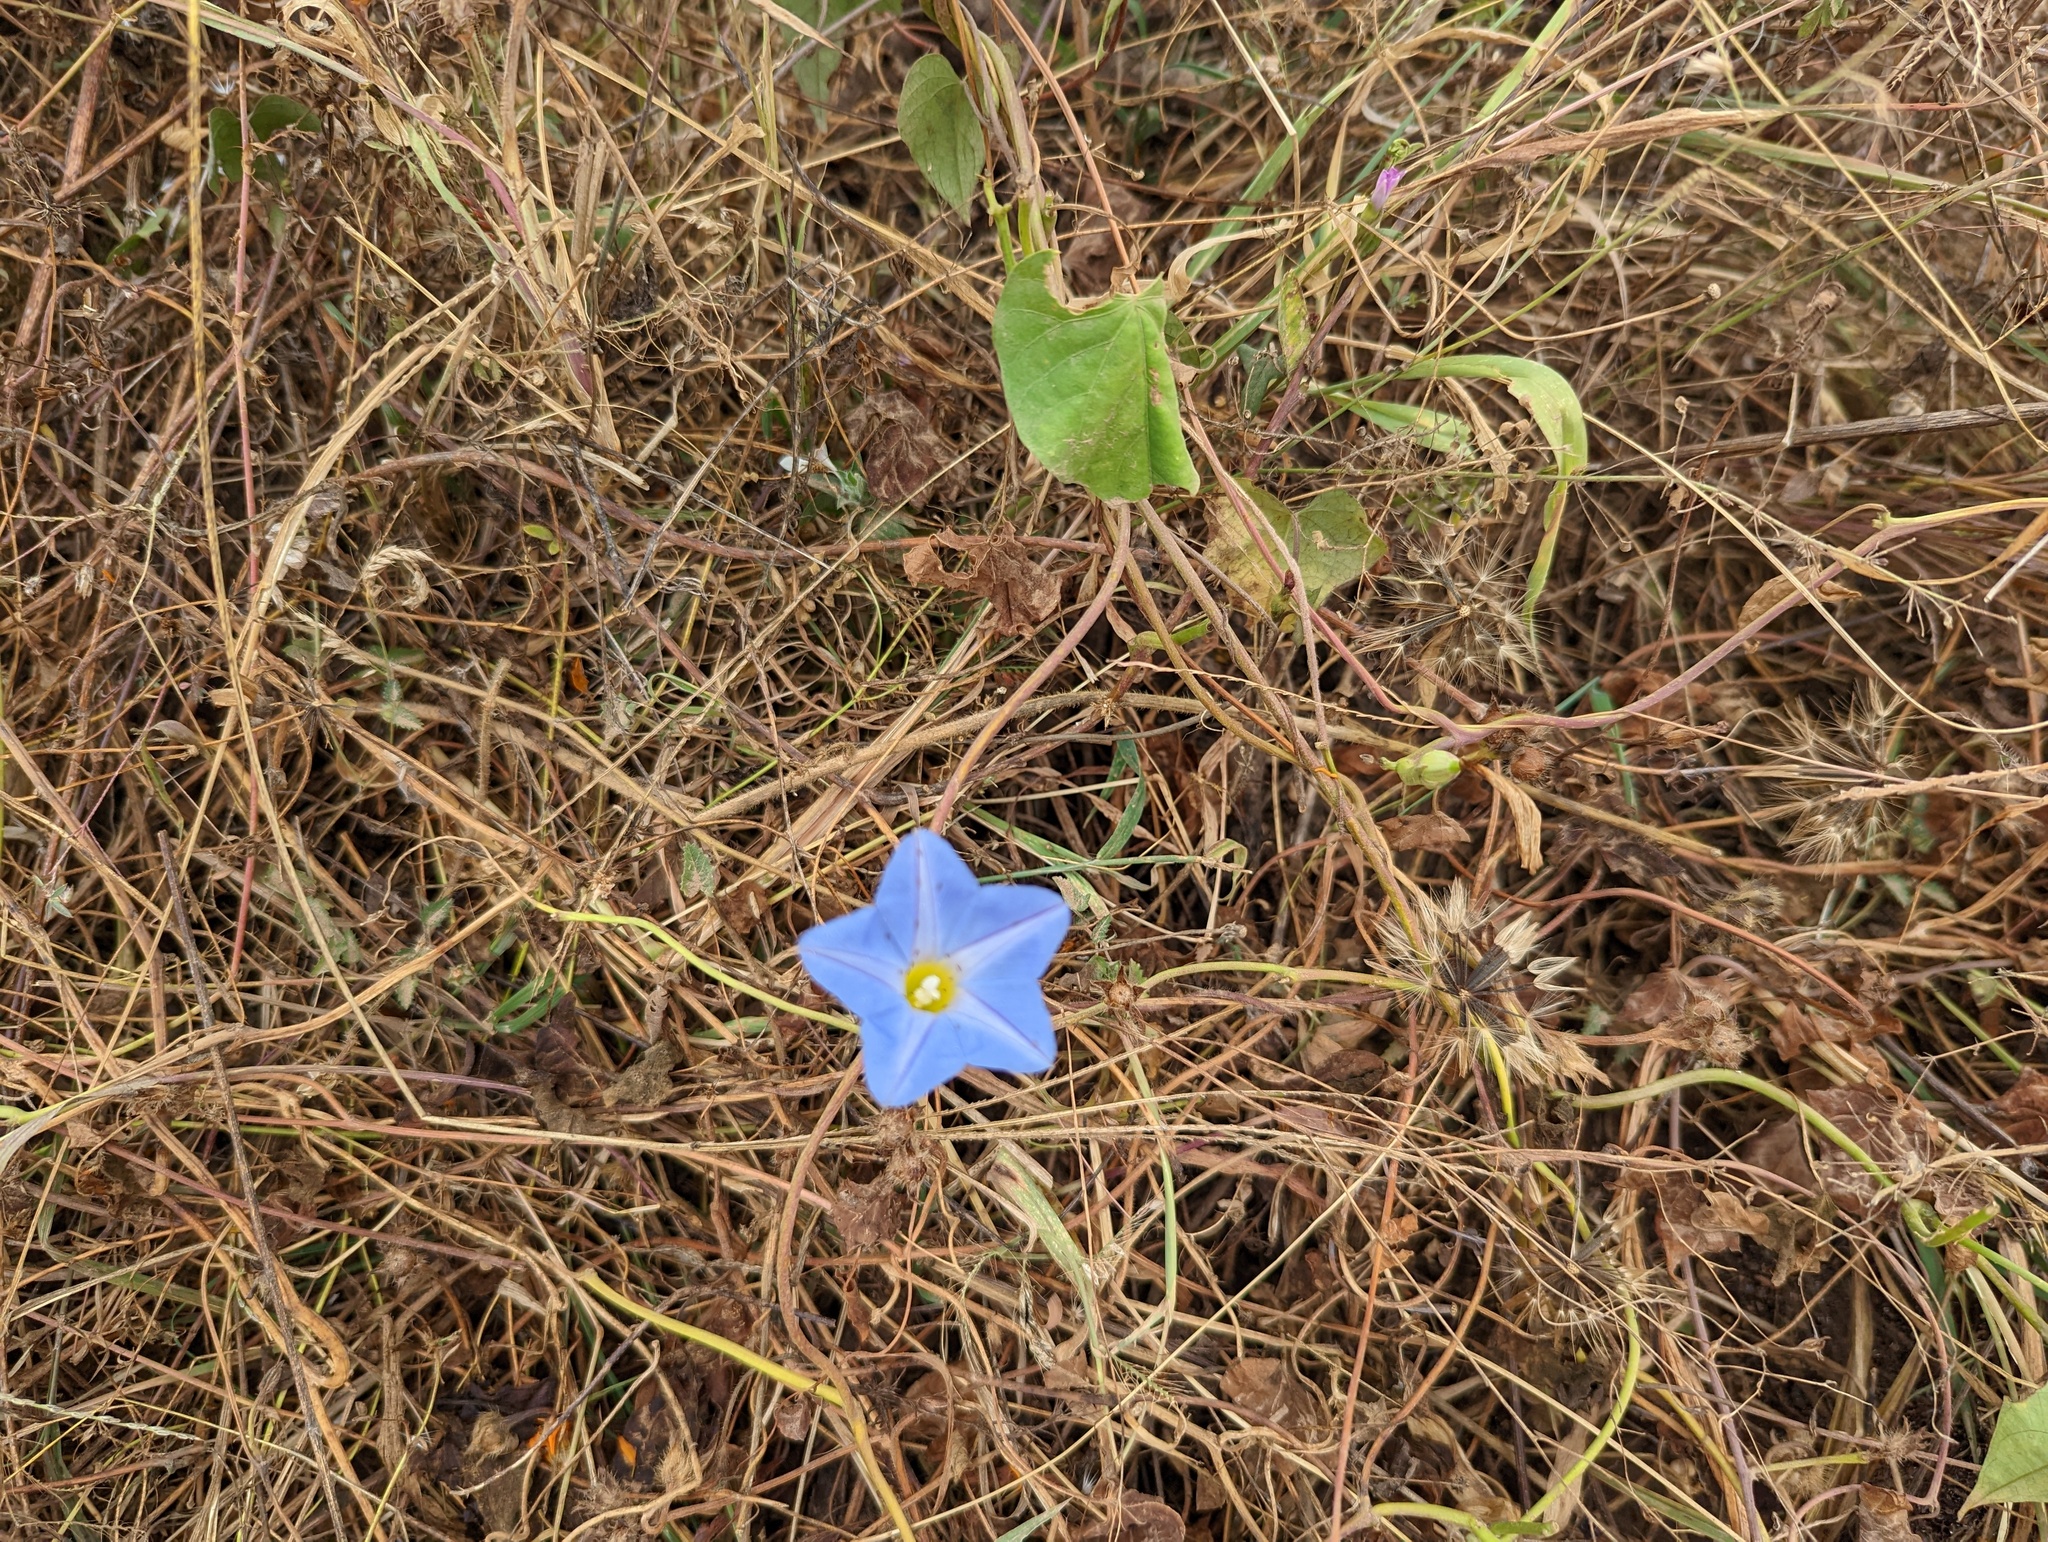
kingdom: Plantae
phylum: Tracheophyta
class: Magnoliopsida
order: Solanales
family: Convolvulaceae
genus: Ipomoea
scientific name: Ipomoea tricolor
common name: Morning-glory
